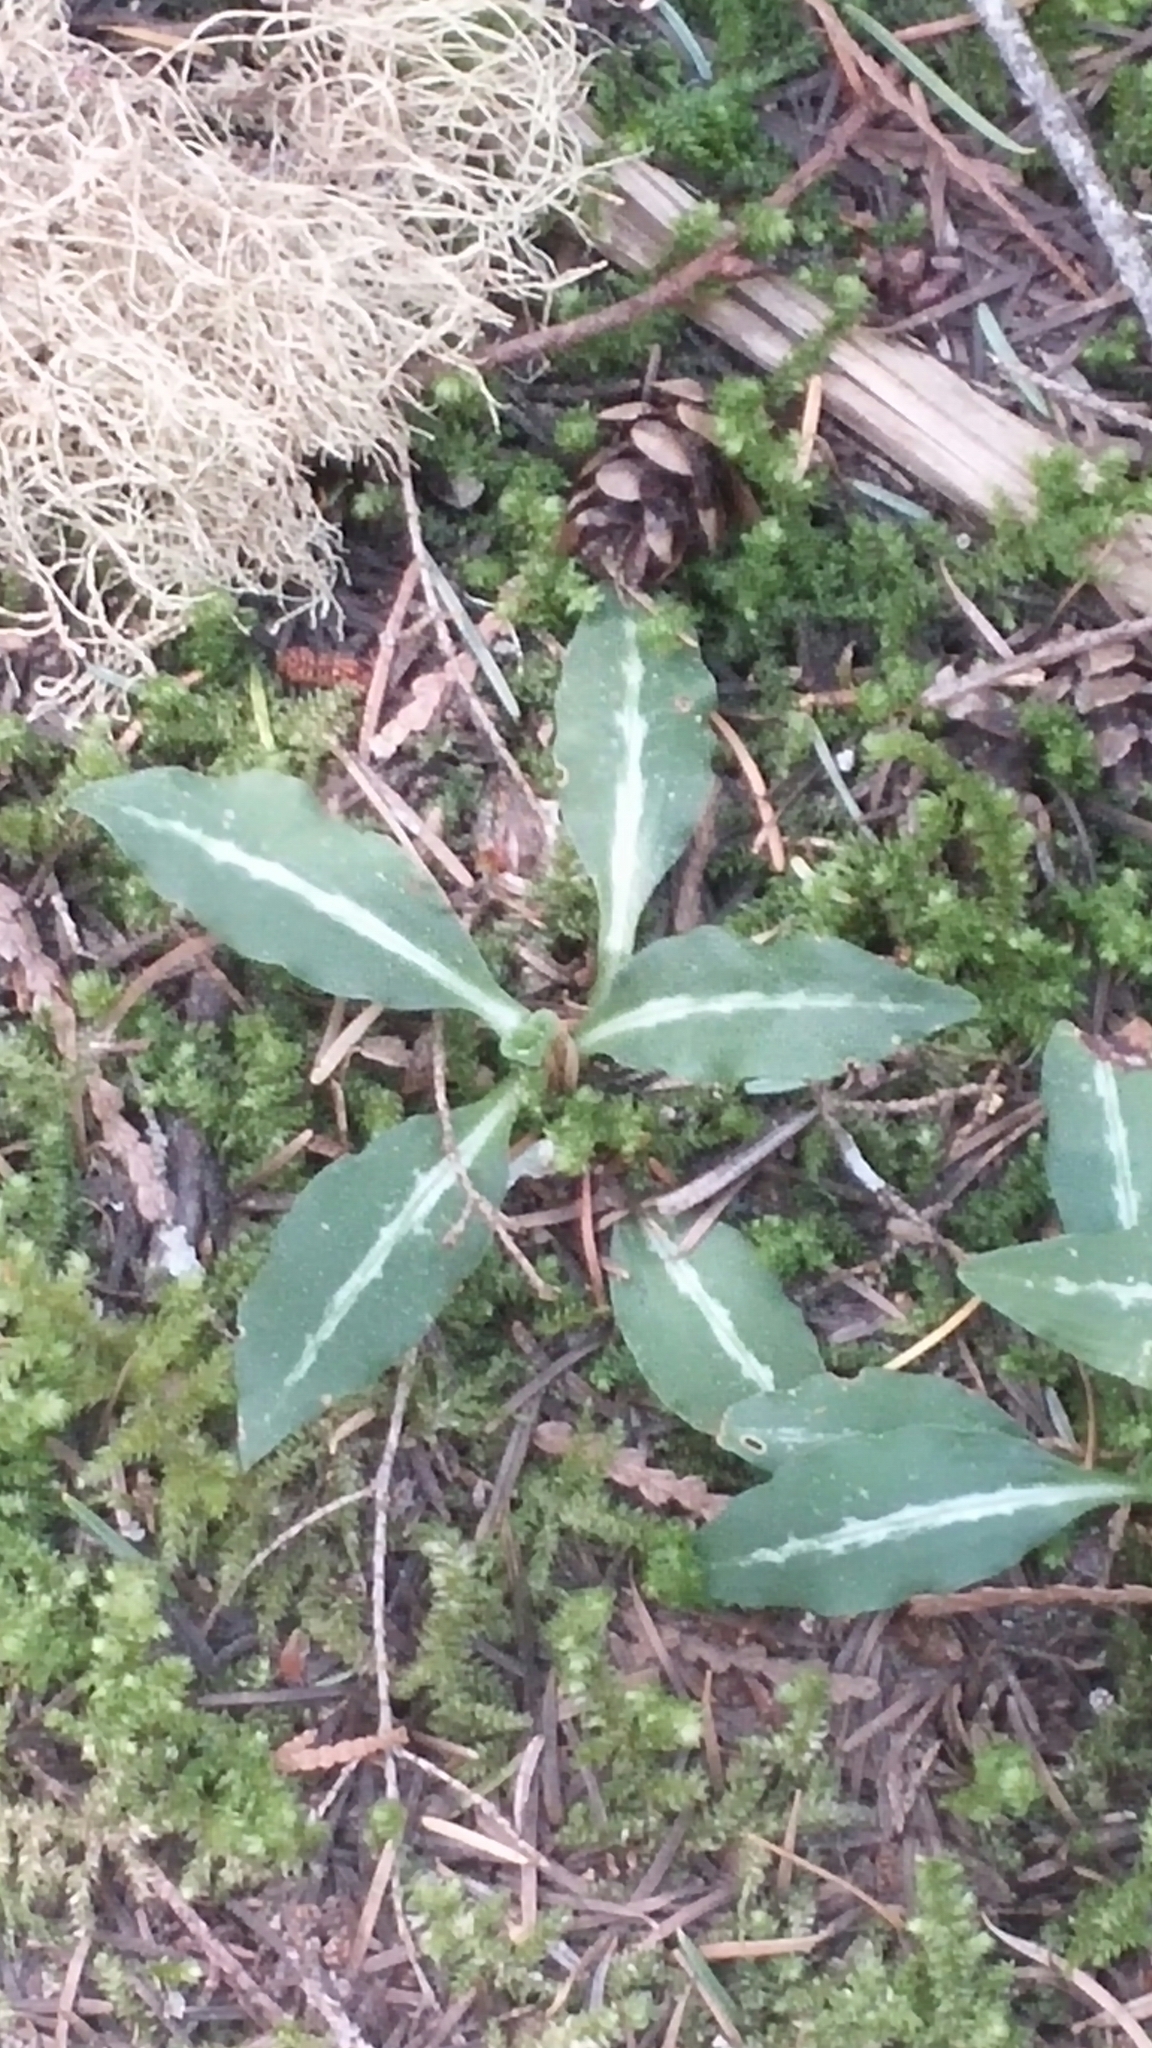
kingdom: Plantae
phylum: Tracheophyta
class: Liliopsida
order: Asparagales
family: Orchidaceae
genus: Goodyera
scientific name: Goodyera oblongifolia
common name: Giant rattlesnake-plantain
